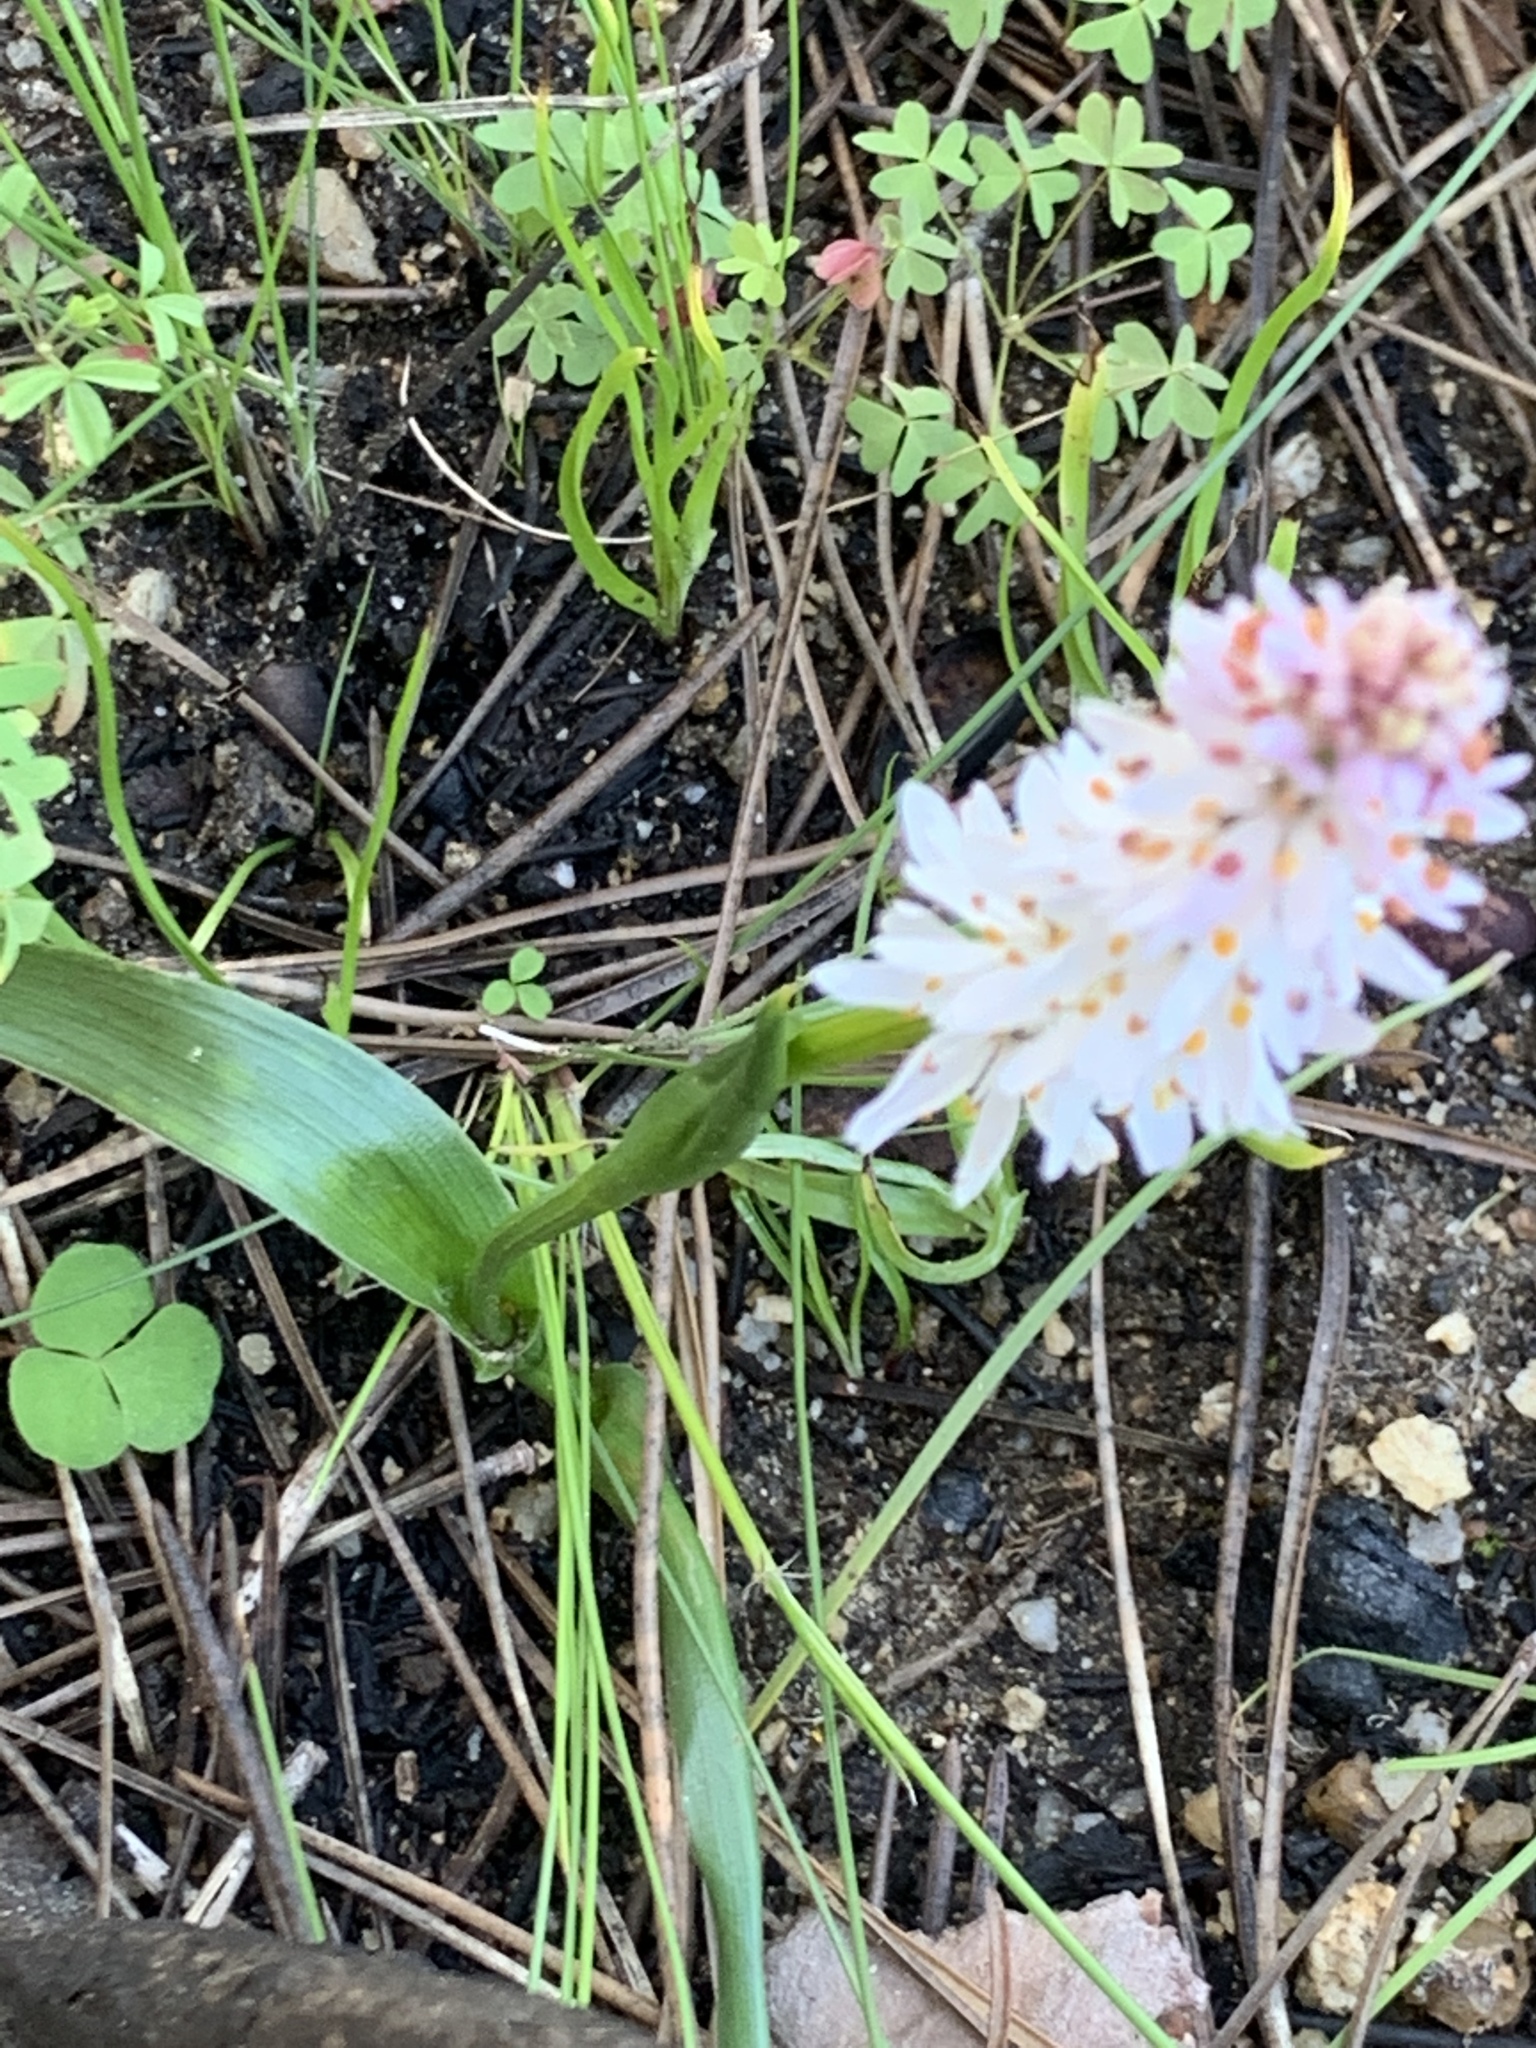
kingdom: Plantae
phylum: Tracheophyta
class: Liliopsida
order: Liliales
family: Colchicaceae
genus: Wurmbea
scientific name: Wurmbea punctata
